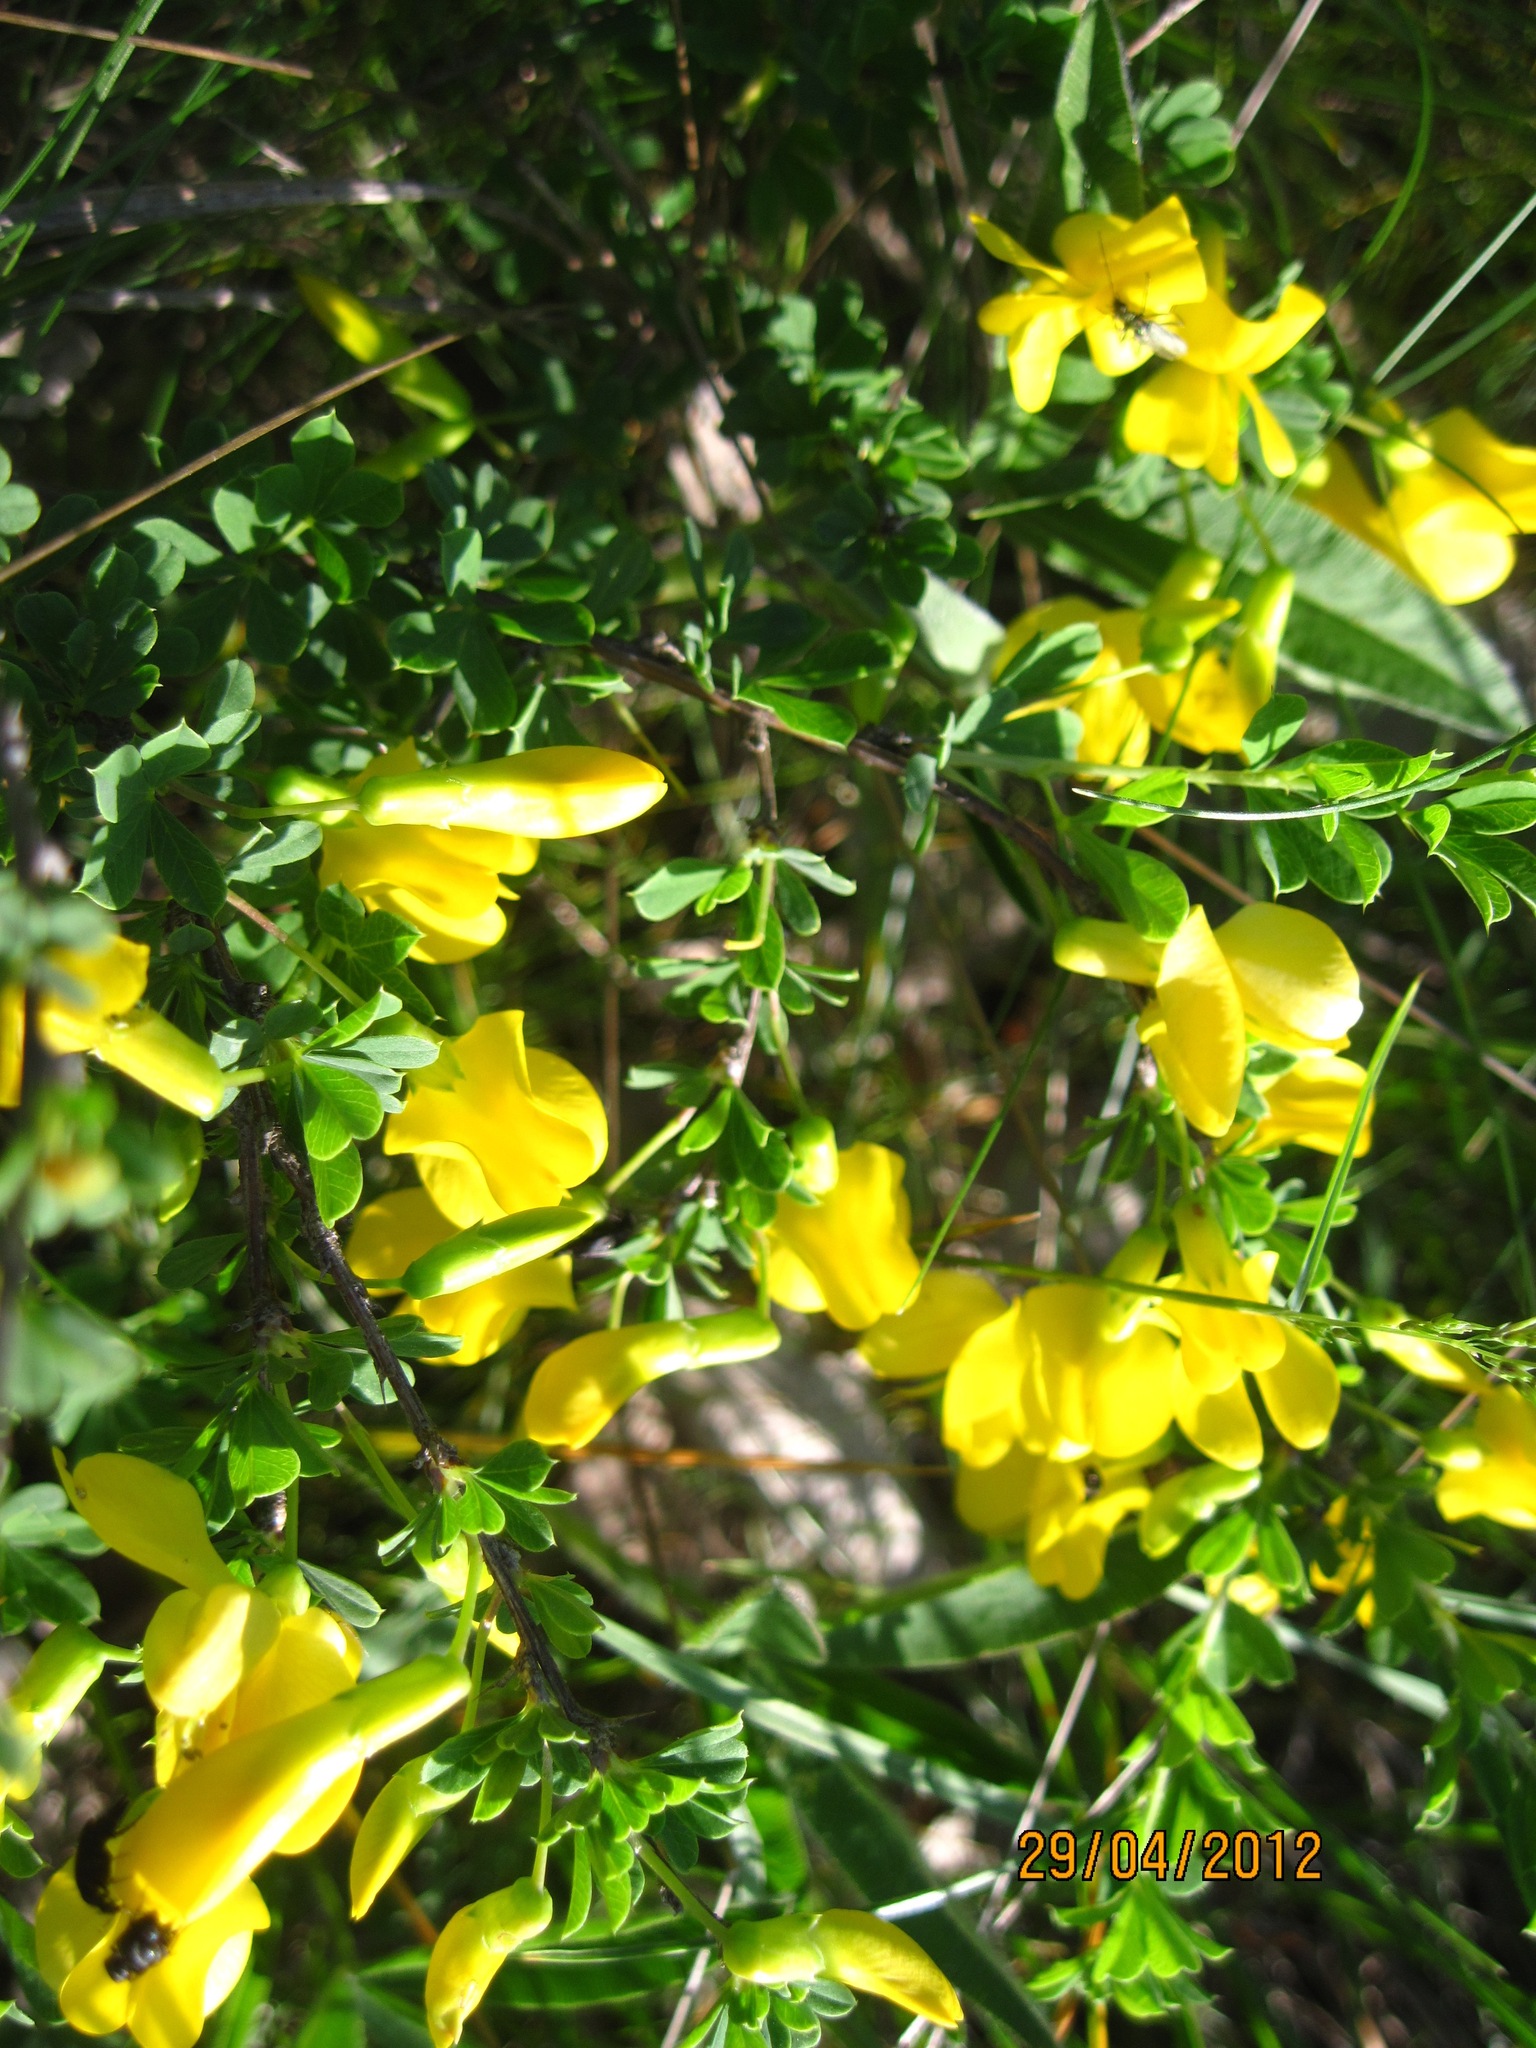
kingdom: Plantae
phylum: Tracheophyta
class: Magnoliopsida
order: Fabales
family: Fabaceae
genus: Caragana
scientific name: Caragana frutex
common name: Russian peashrub
